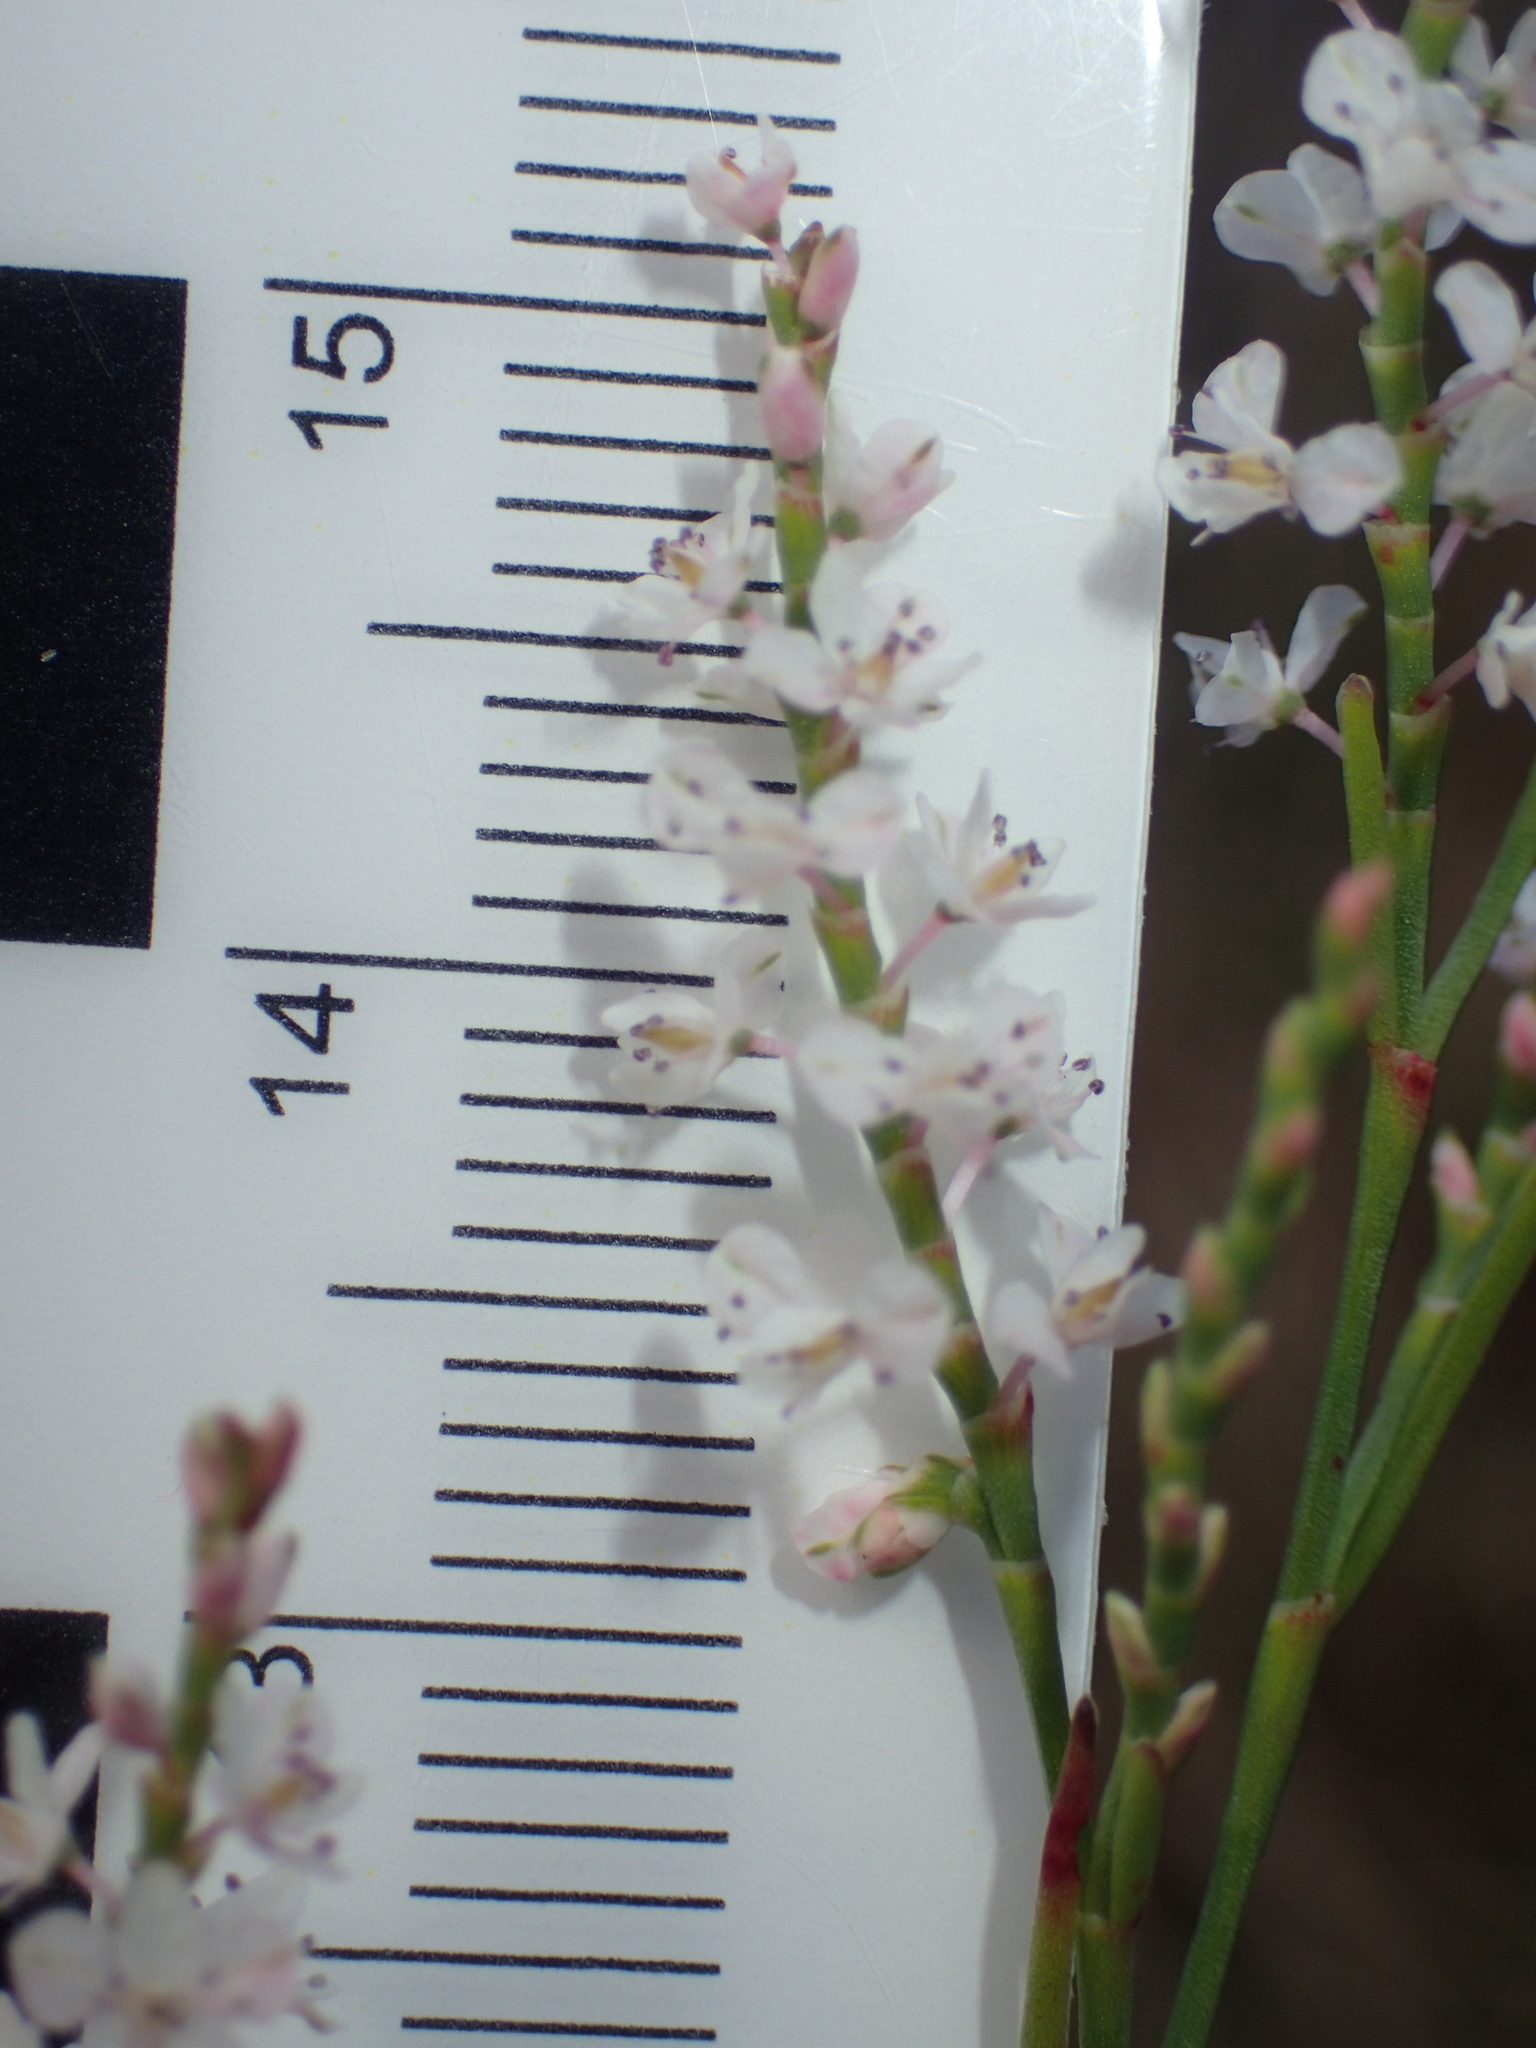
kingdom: Plantae
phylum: Tracheophyta
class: Magnoliopsida
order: Caryophyllales
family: Polygonaceae
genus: Polygonella
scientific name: Polygonella articulata
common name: Coastal jointweed
